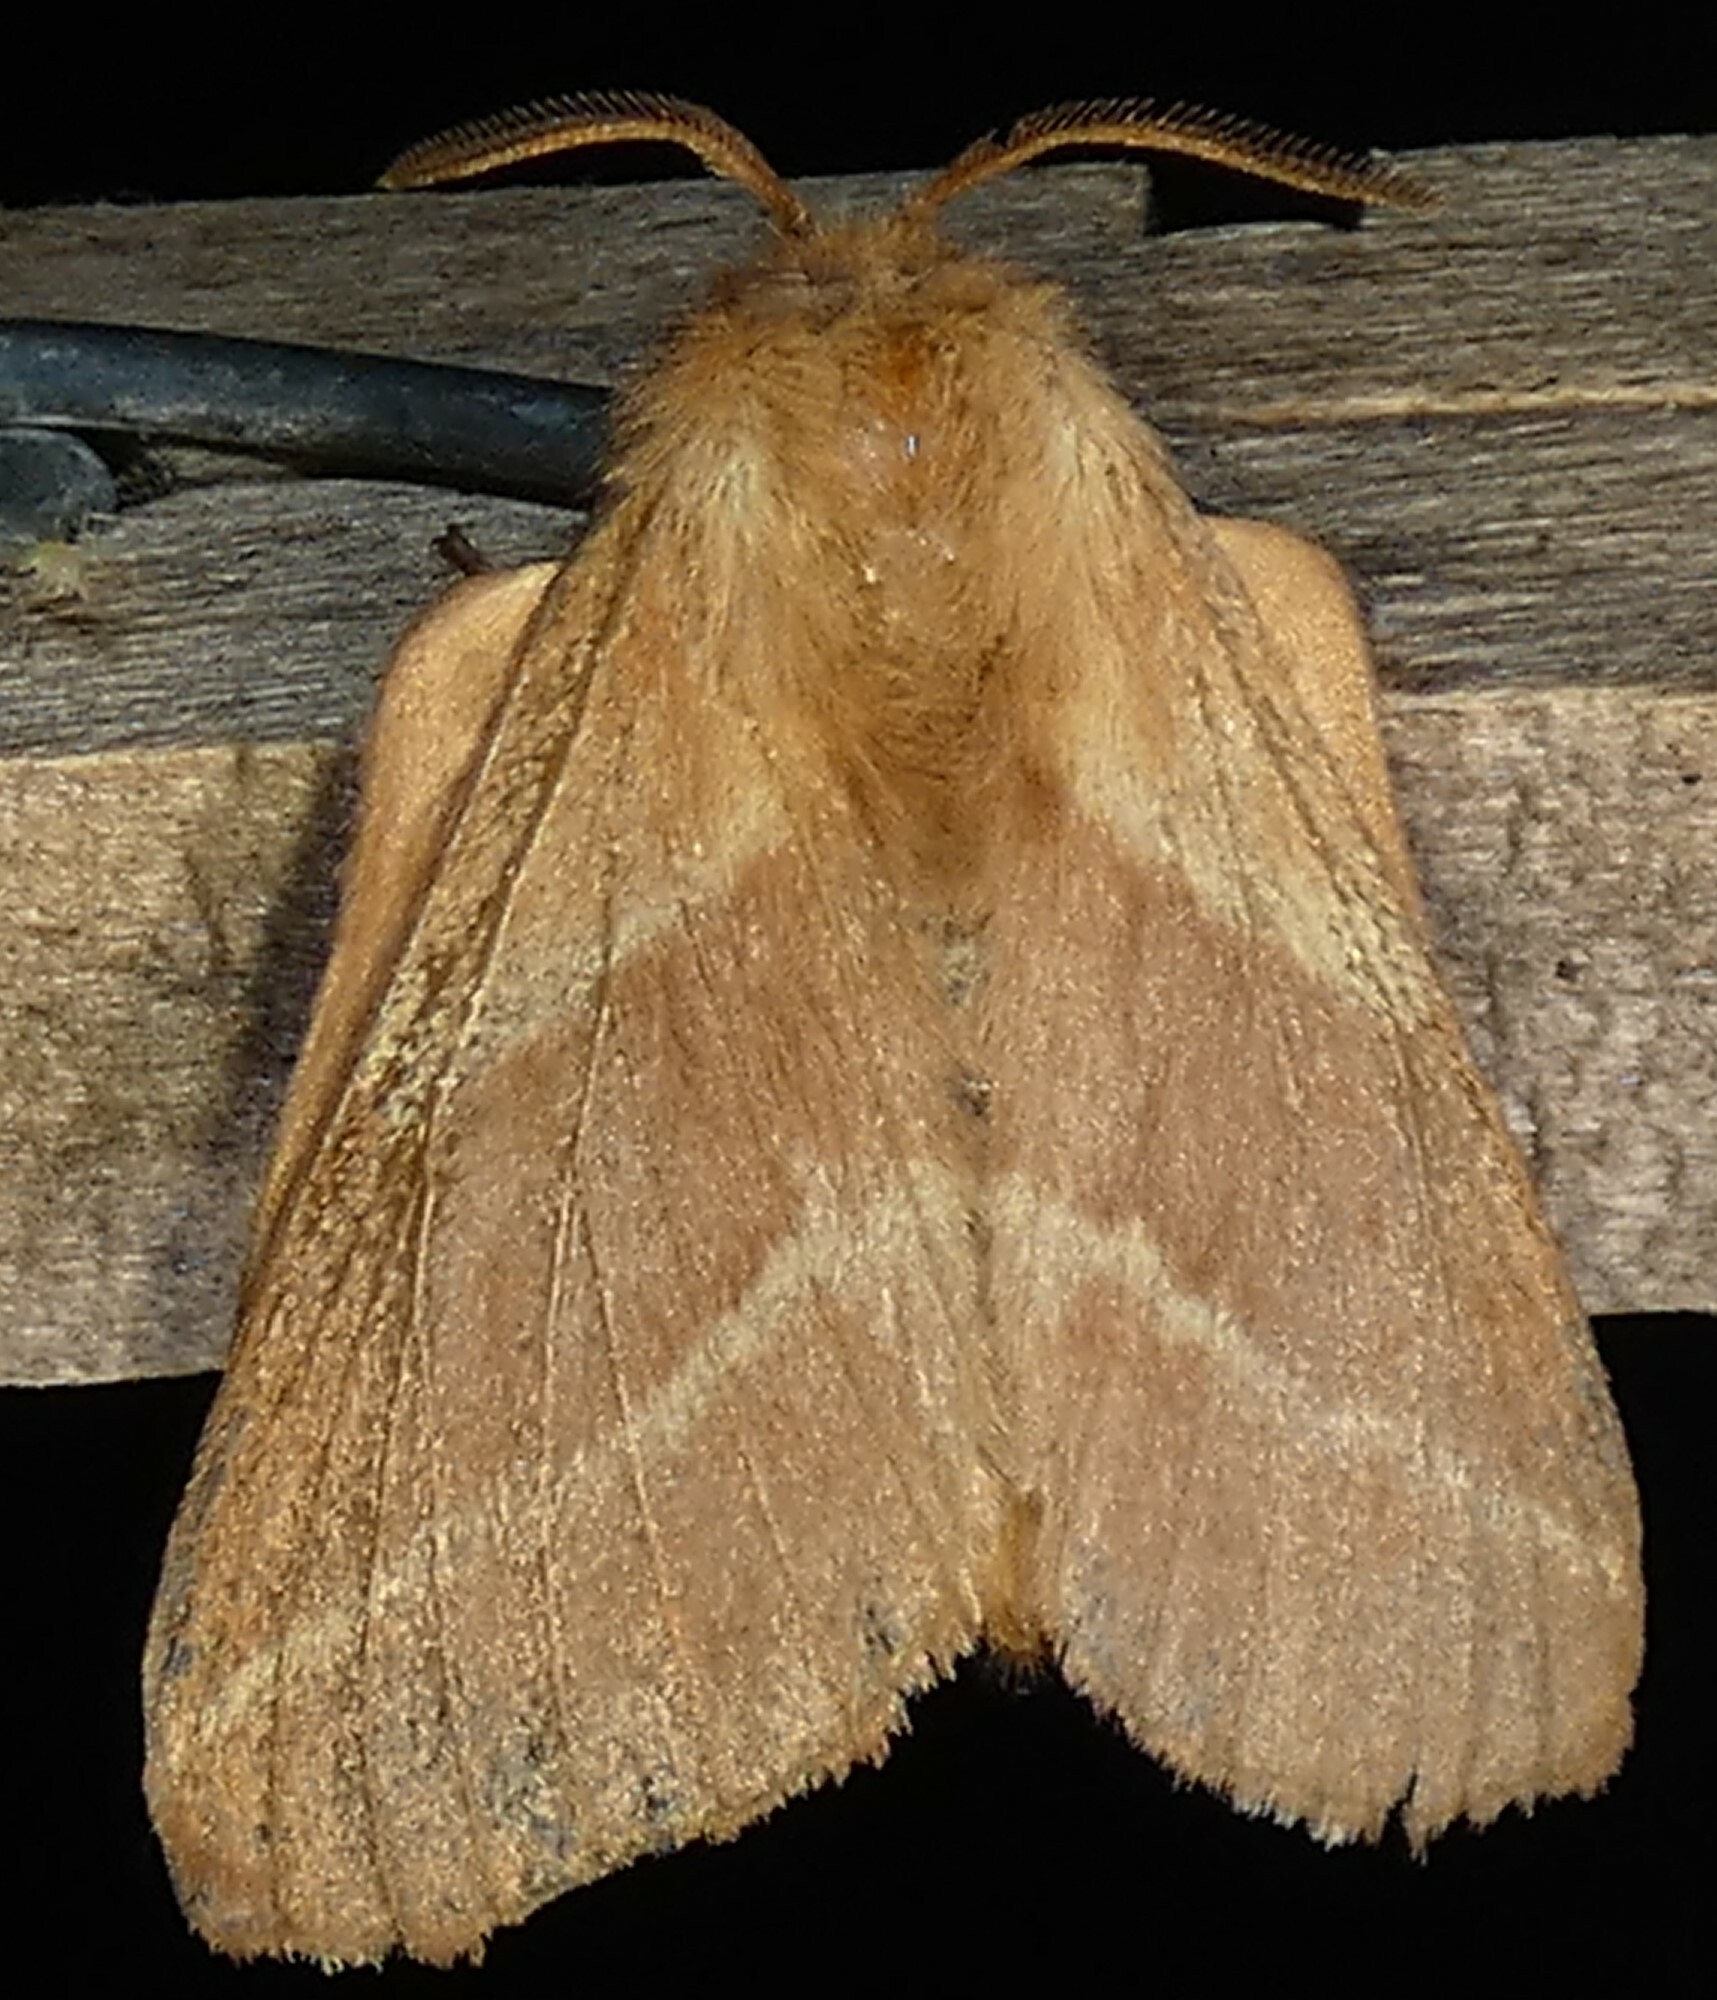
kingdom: Animalia
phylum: Arthropoda
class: Insecta
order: Lepidoptera
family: Lasiocampidae
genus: Malacosoma
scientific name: Malacosoma americana
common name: Eastern tent caterpillar moth
